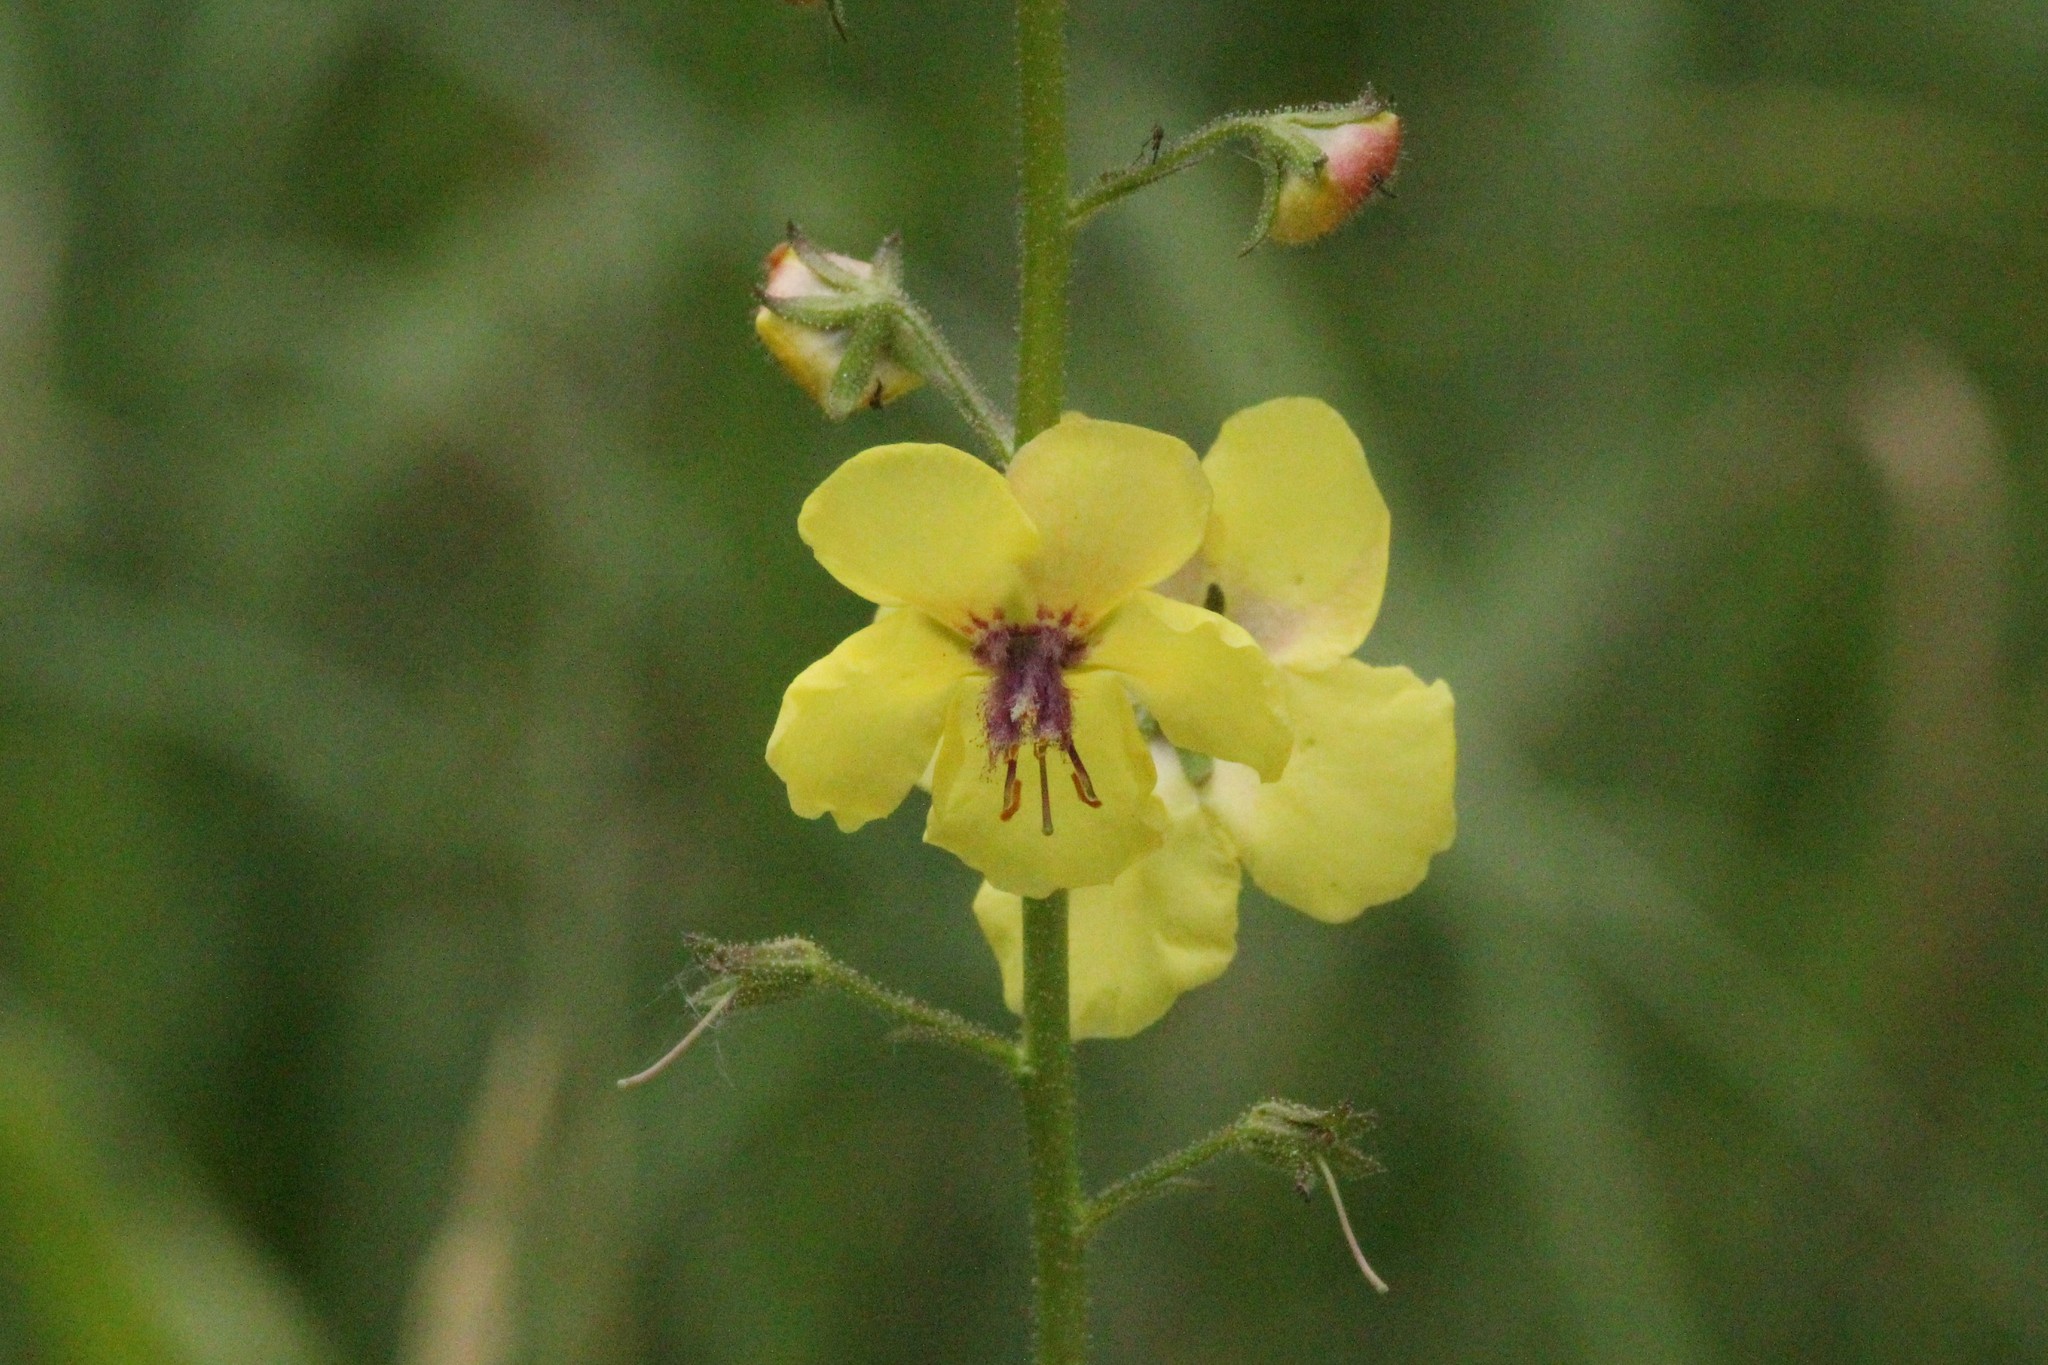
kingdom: Plantae
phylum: Tracheophyta
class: Magnoliopsida
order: Lamiales
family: Scrophulariaceae
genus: Verbascum
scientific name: Verbascum blattaria
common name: Moth mullein
